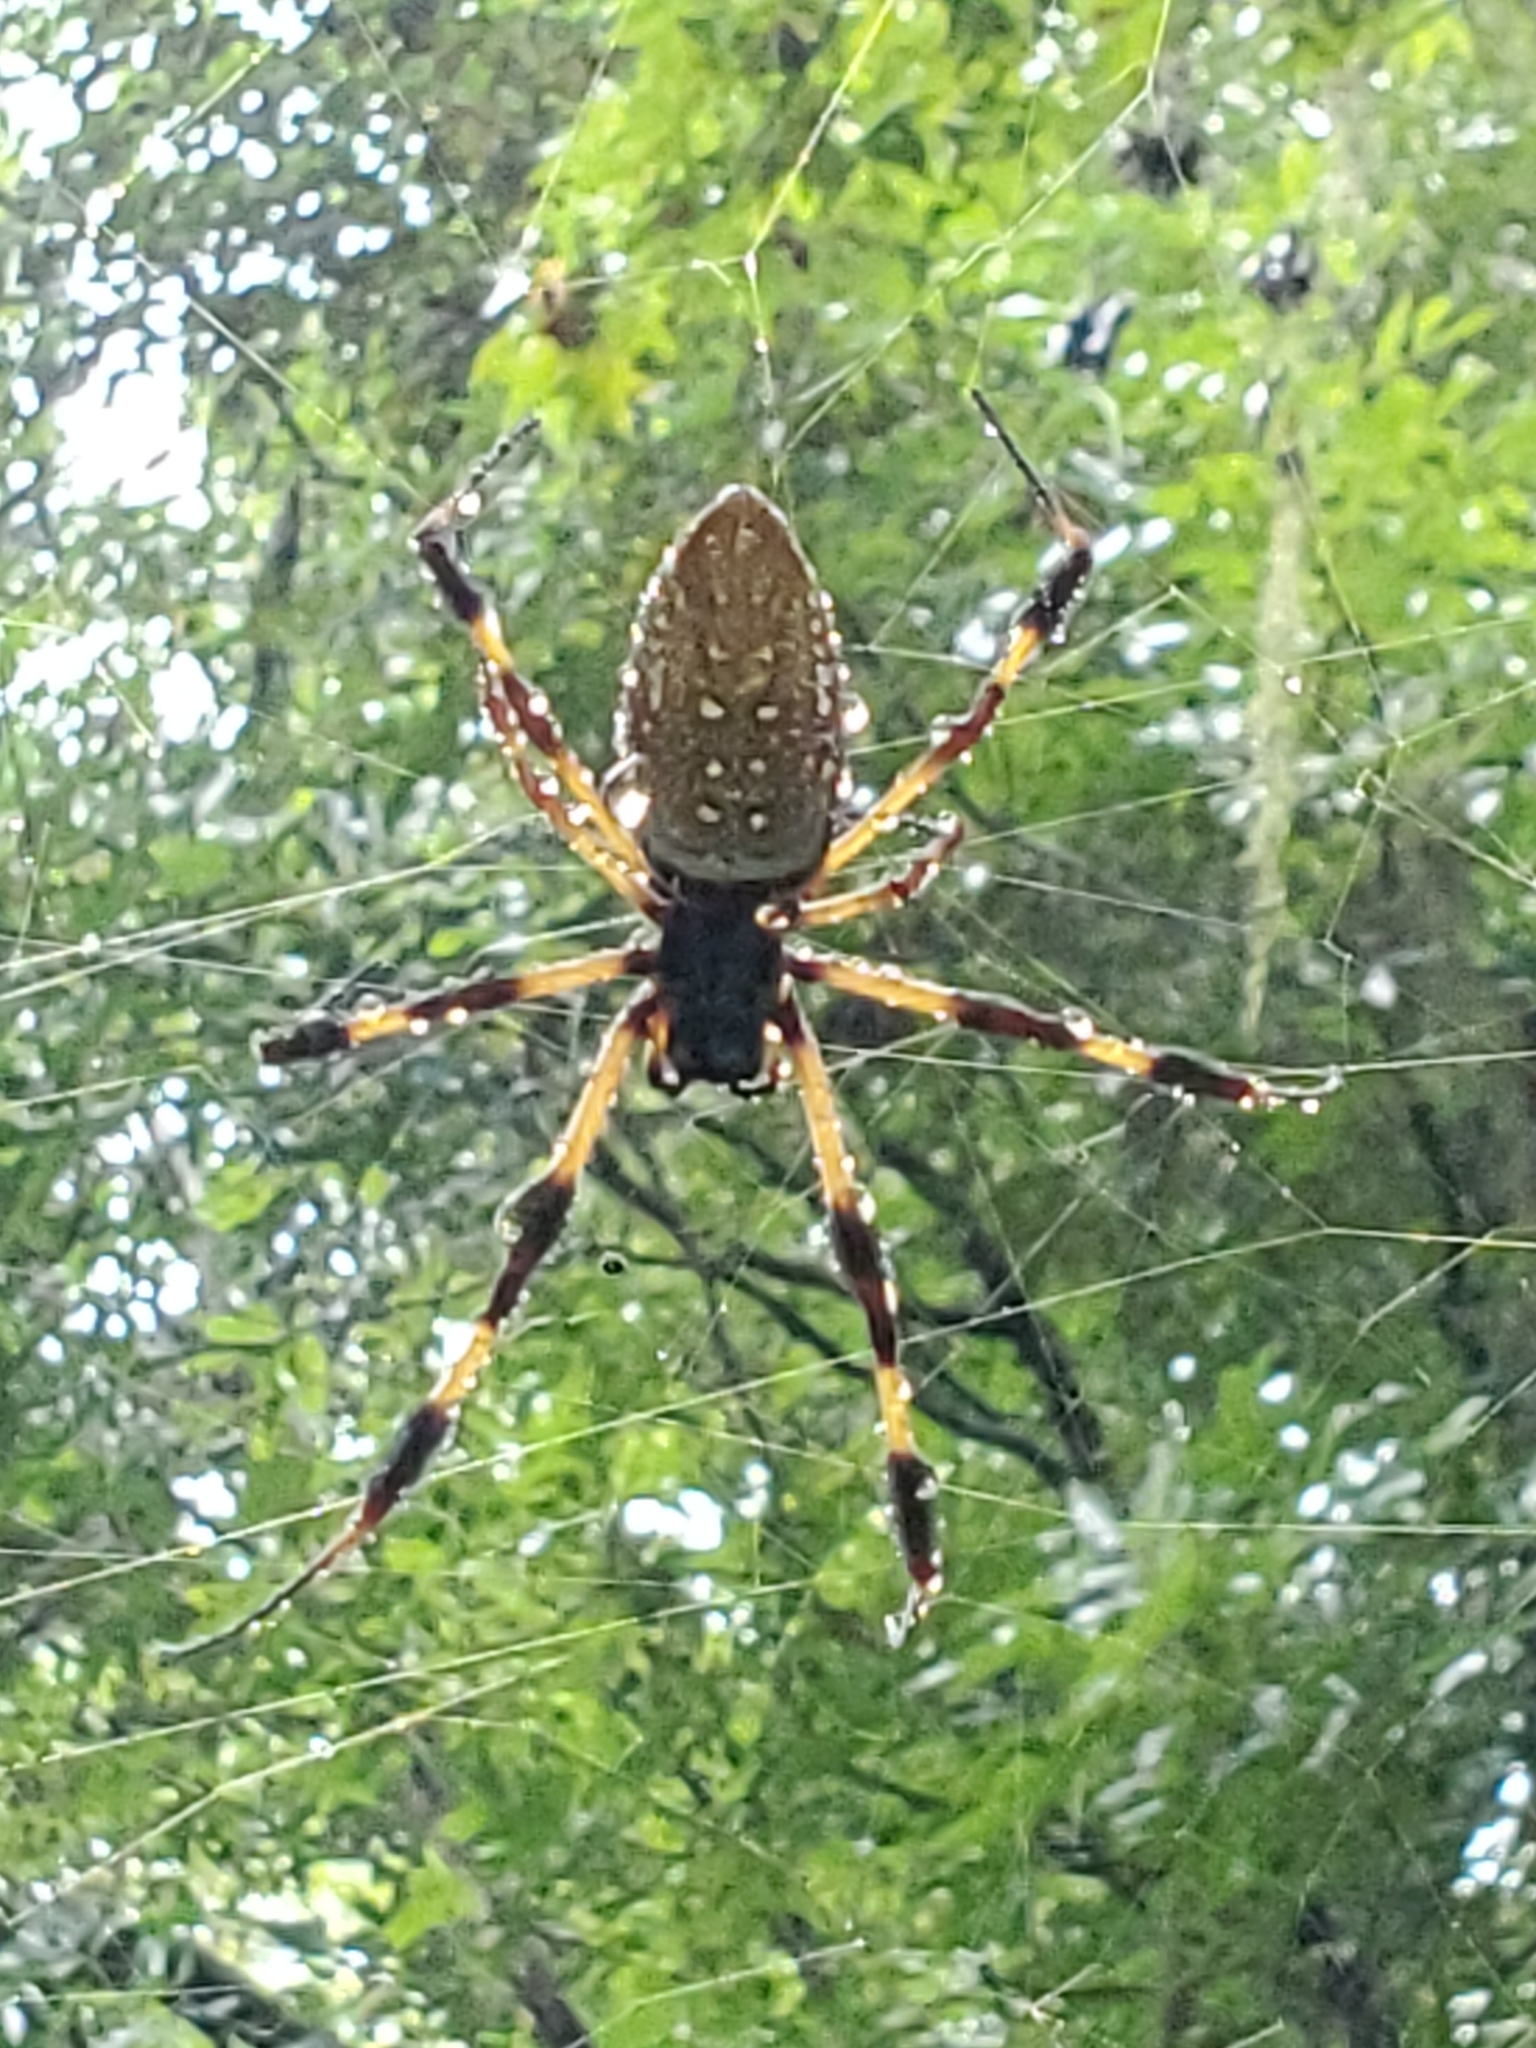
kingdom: Animalia
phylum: Arthropoda
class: Arachnida
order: Araneae
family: Araneidae
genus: Trichonephila
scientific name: Trichonephila clavipes
